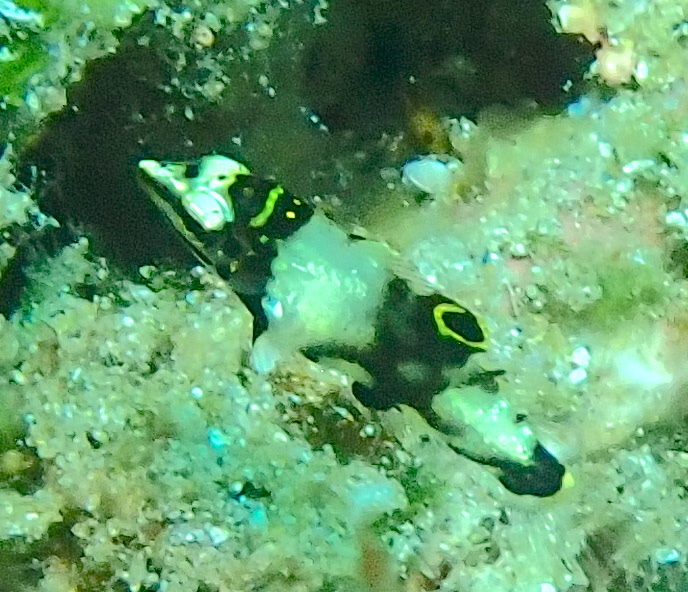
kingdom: Animalia
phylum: Chordata
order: Perciformes
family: Labridae
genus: Halichoeres
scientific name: Halichoeres hortulanus
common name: Checkerboard wrasse
